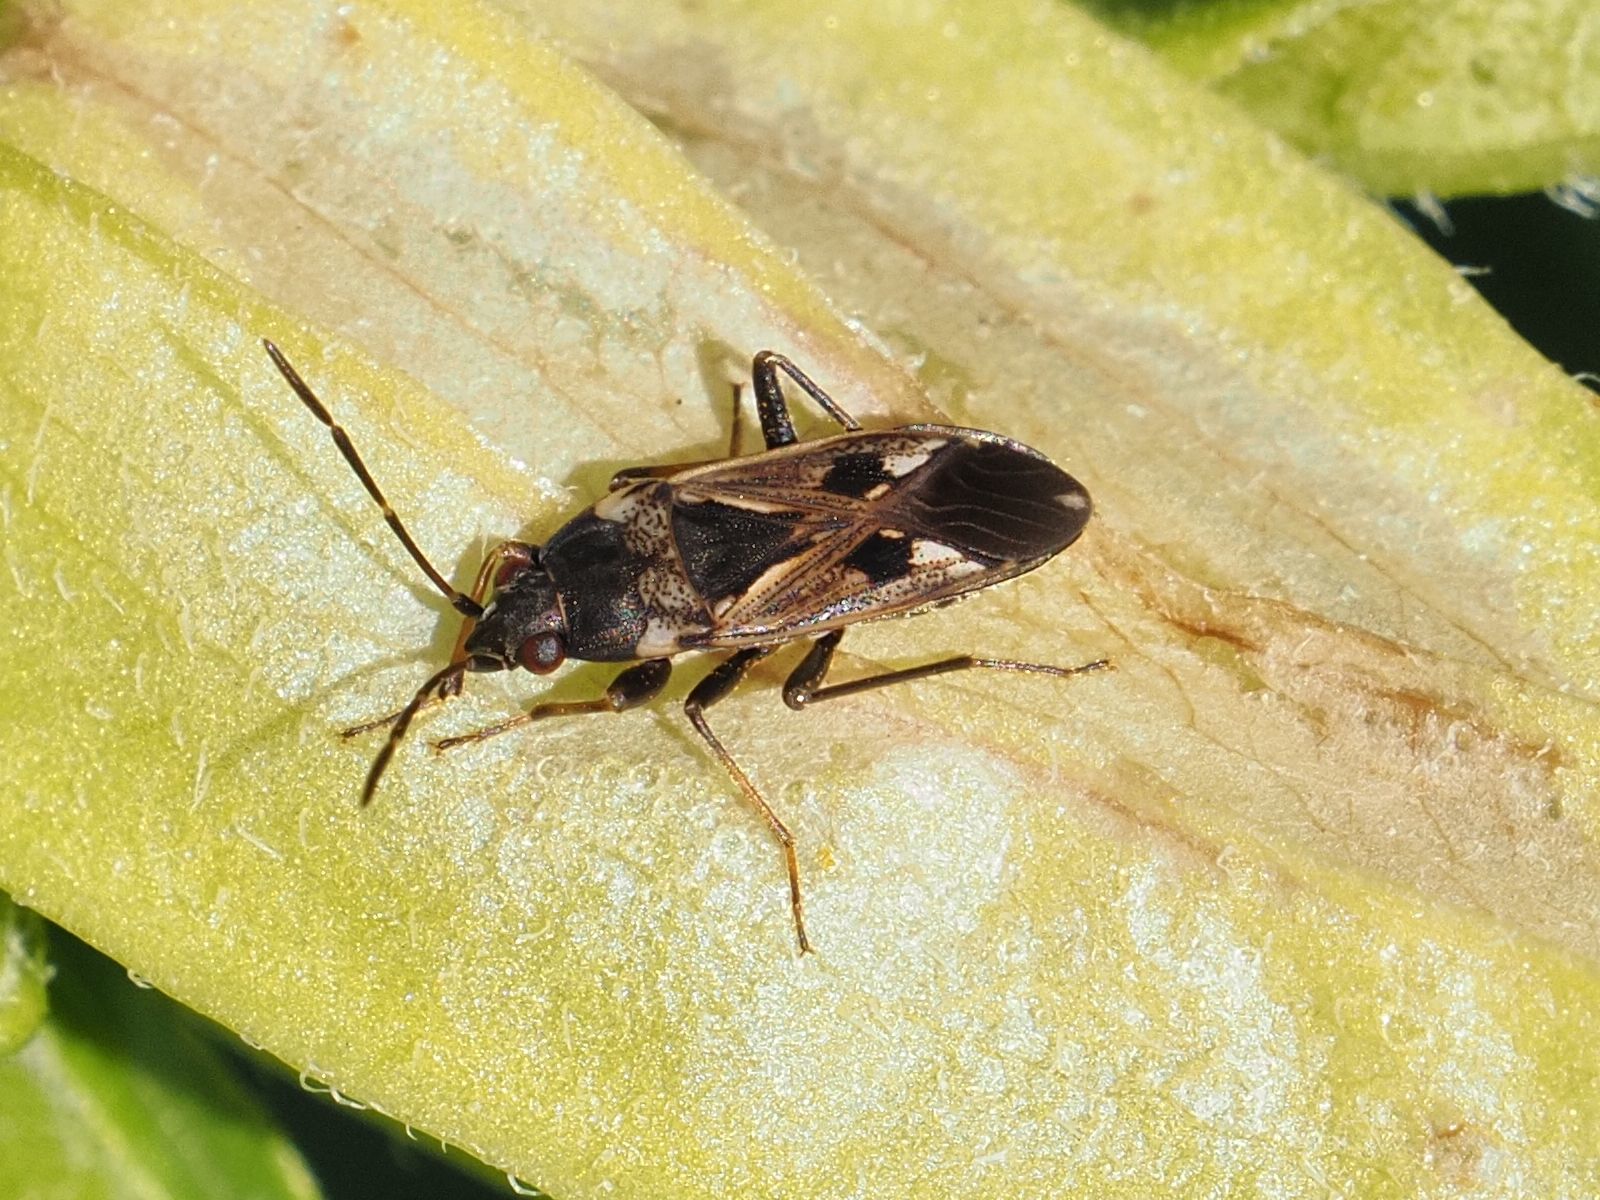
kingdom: Animalia
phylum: Arthropoda
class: Insecta
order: Hemiptera
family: Rhyparochromidae
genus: Rhyparochromus
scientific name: Rhyparochromus vulgaris
